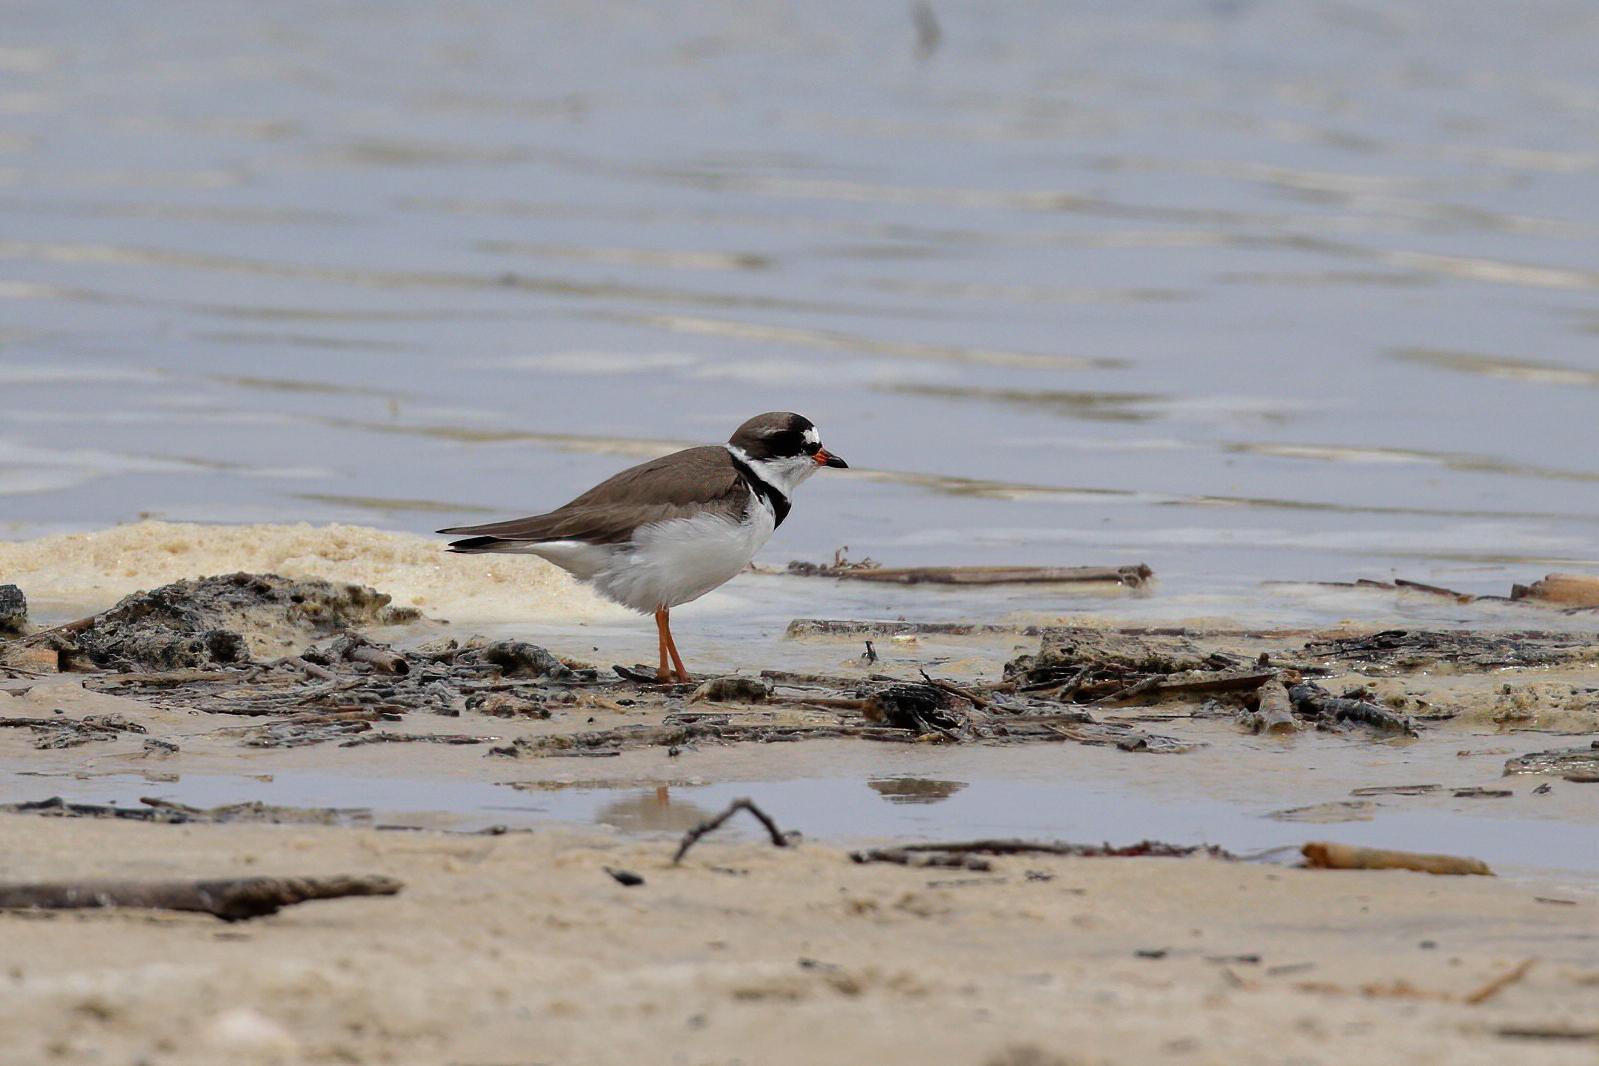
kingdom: Animalia
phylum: Chordata
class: Aves
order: Charadriiformes
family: Charadriidae
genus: Charadrius
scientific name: Charadrius semipalmatus
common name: Semipalmated plover
